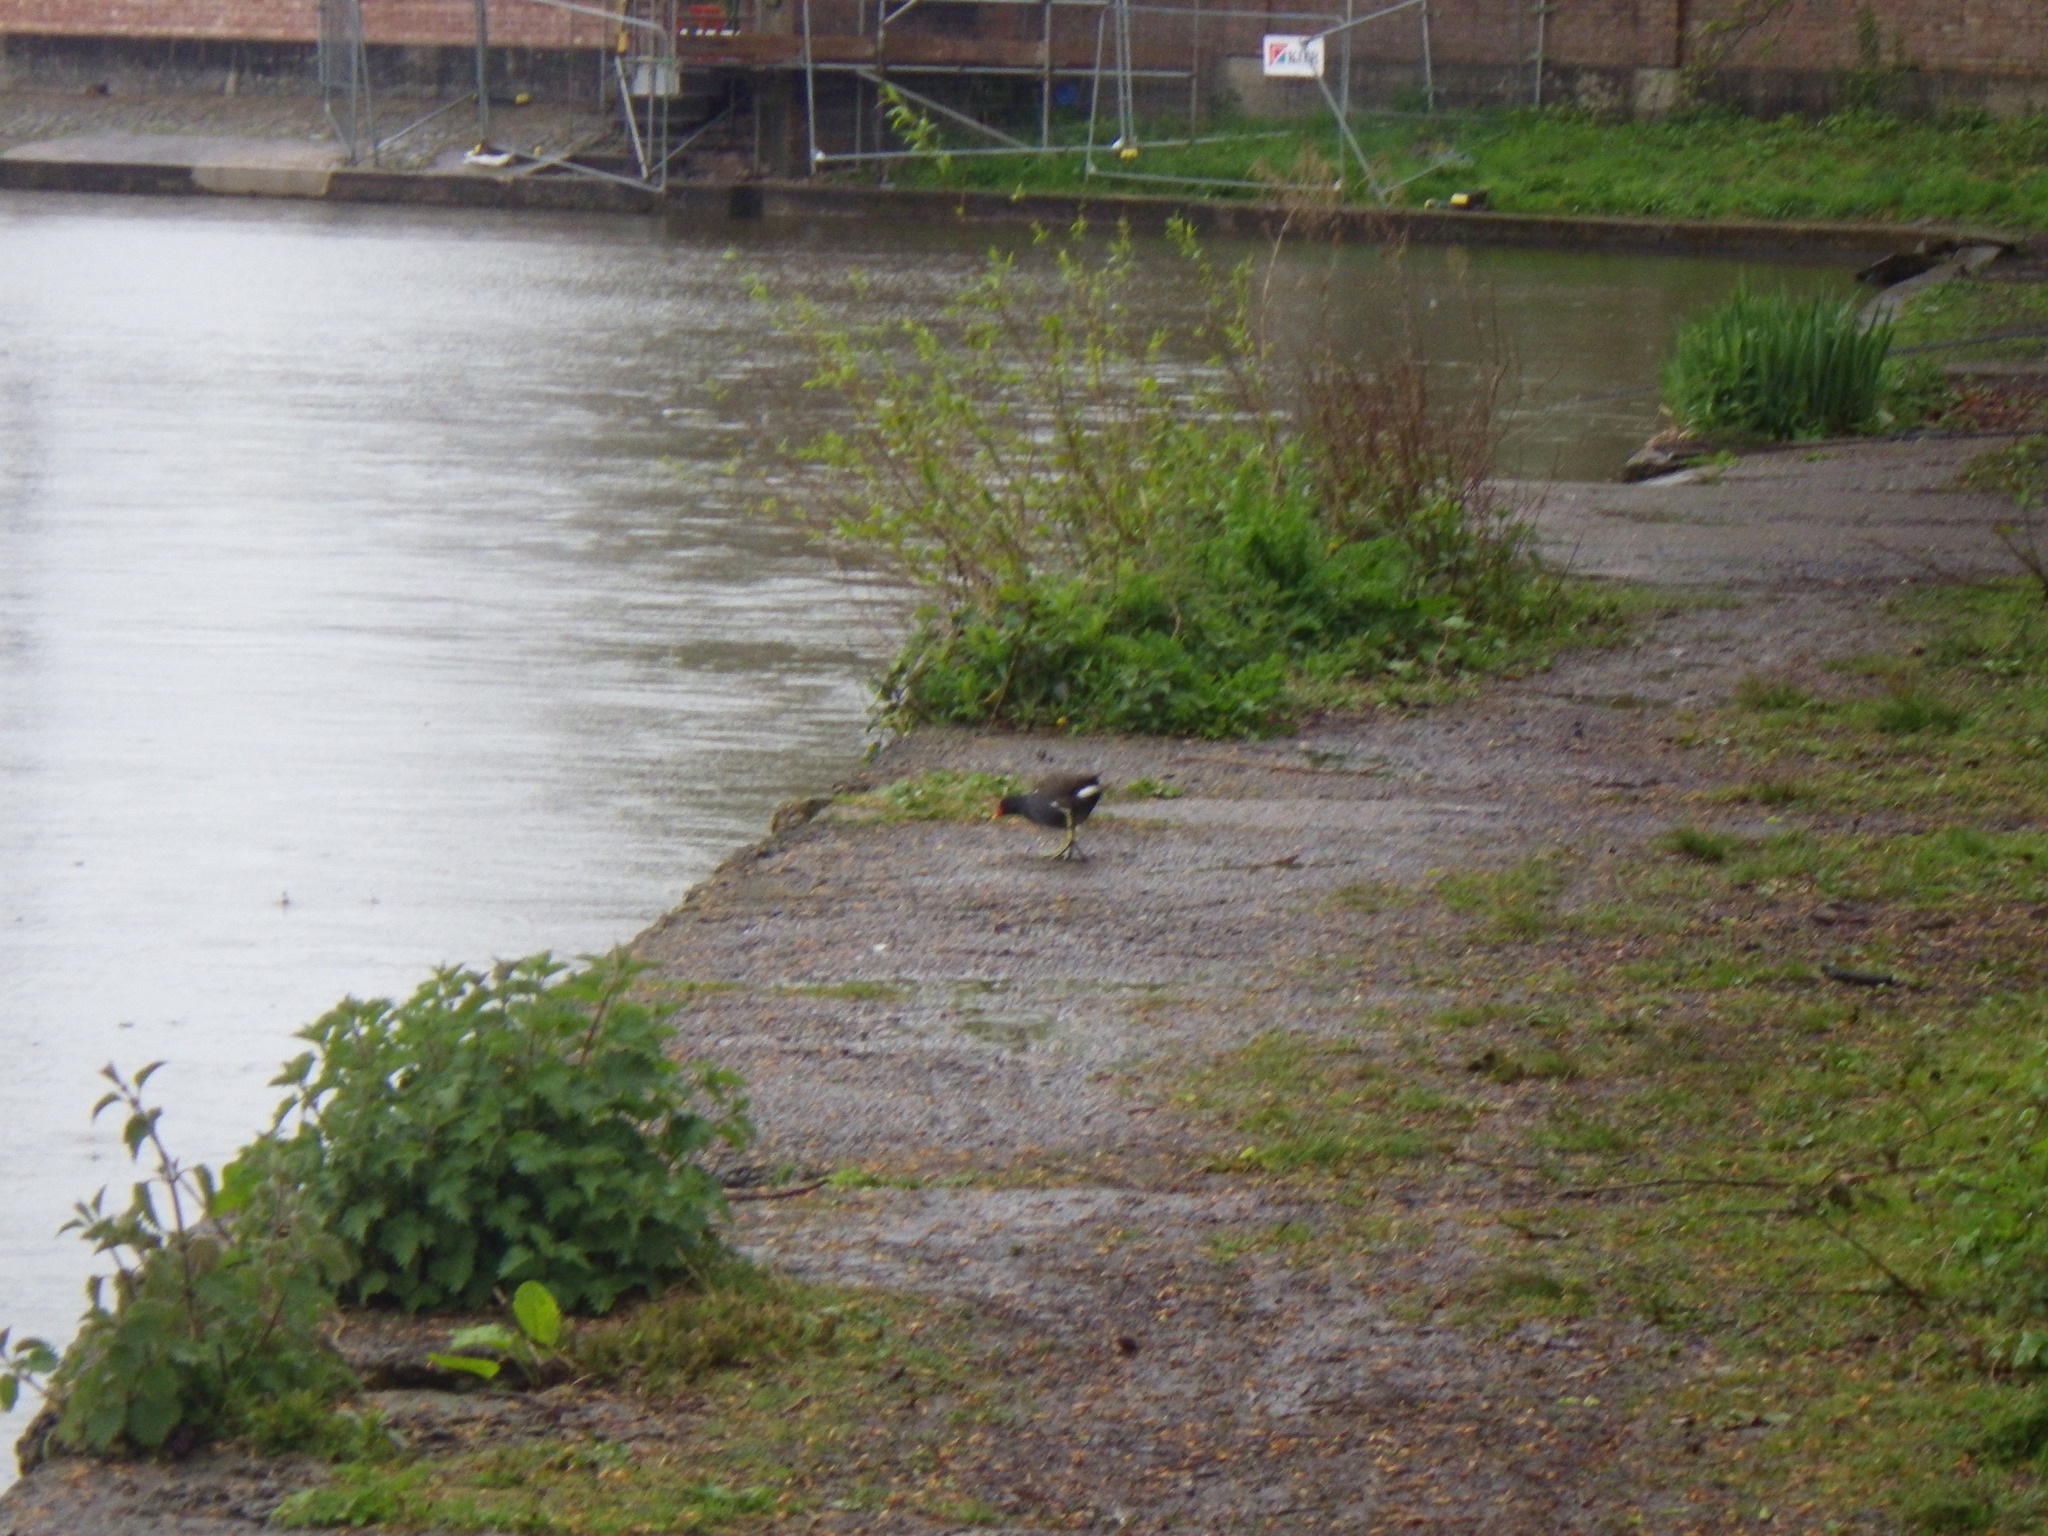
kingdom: Animalia
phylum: Chordata
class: Aves
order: Gruiformes
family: Rallidae
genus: Gallinula
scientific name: Gallinula chloropus
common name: Common moorhen
